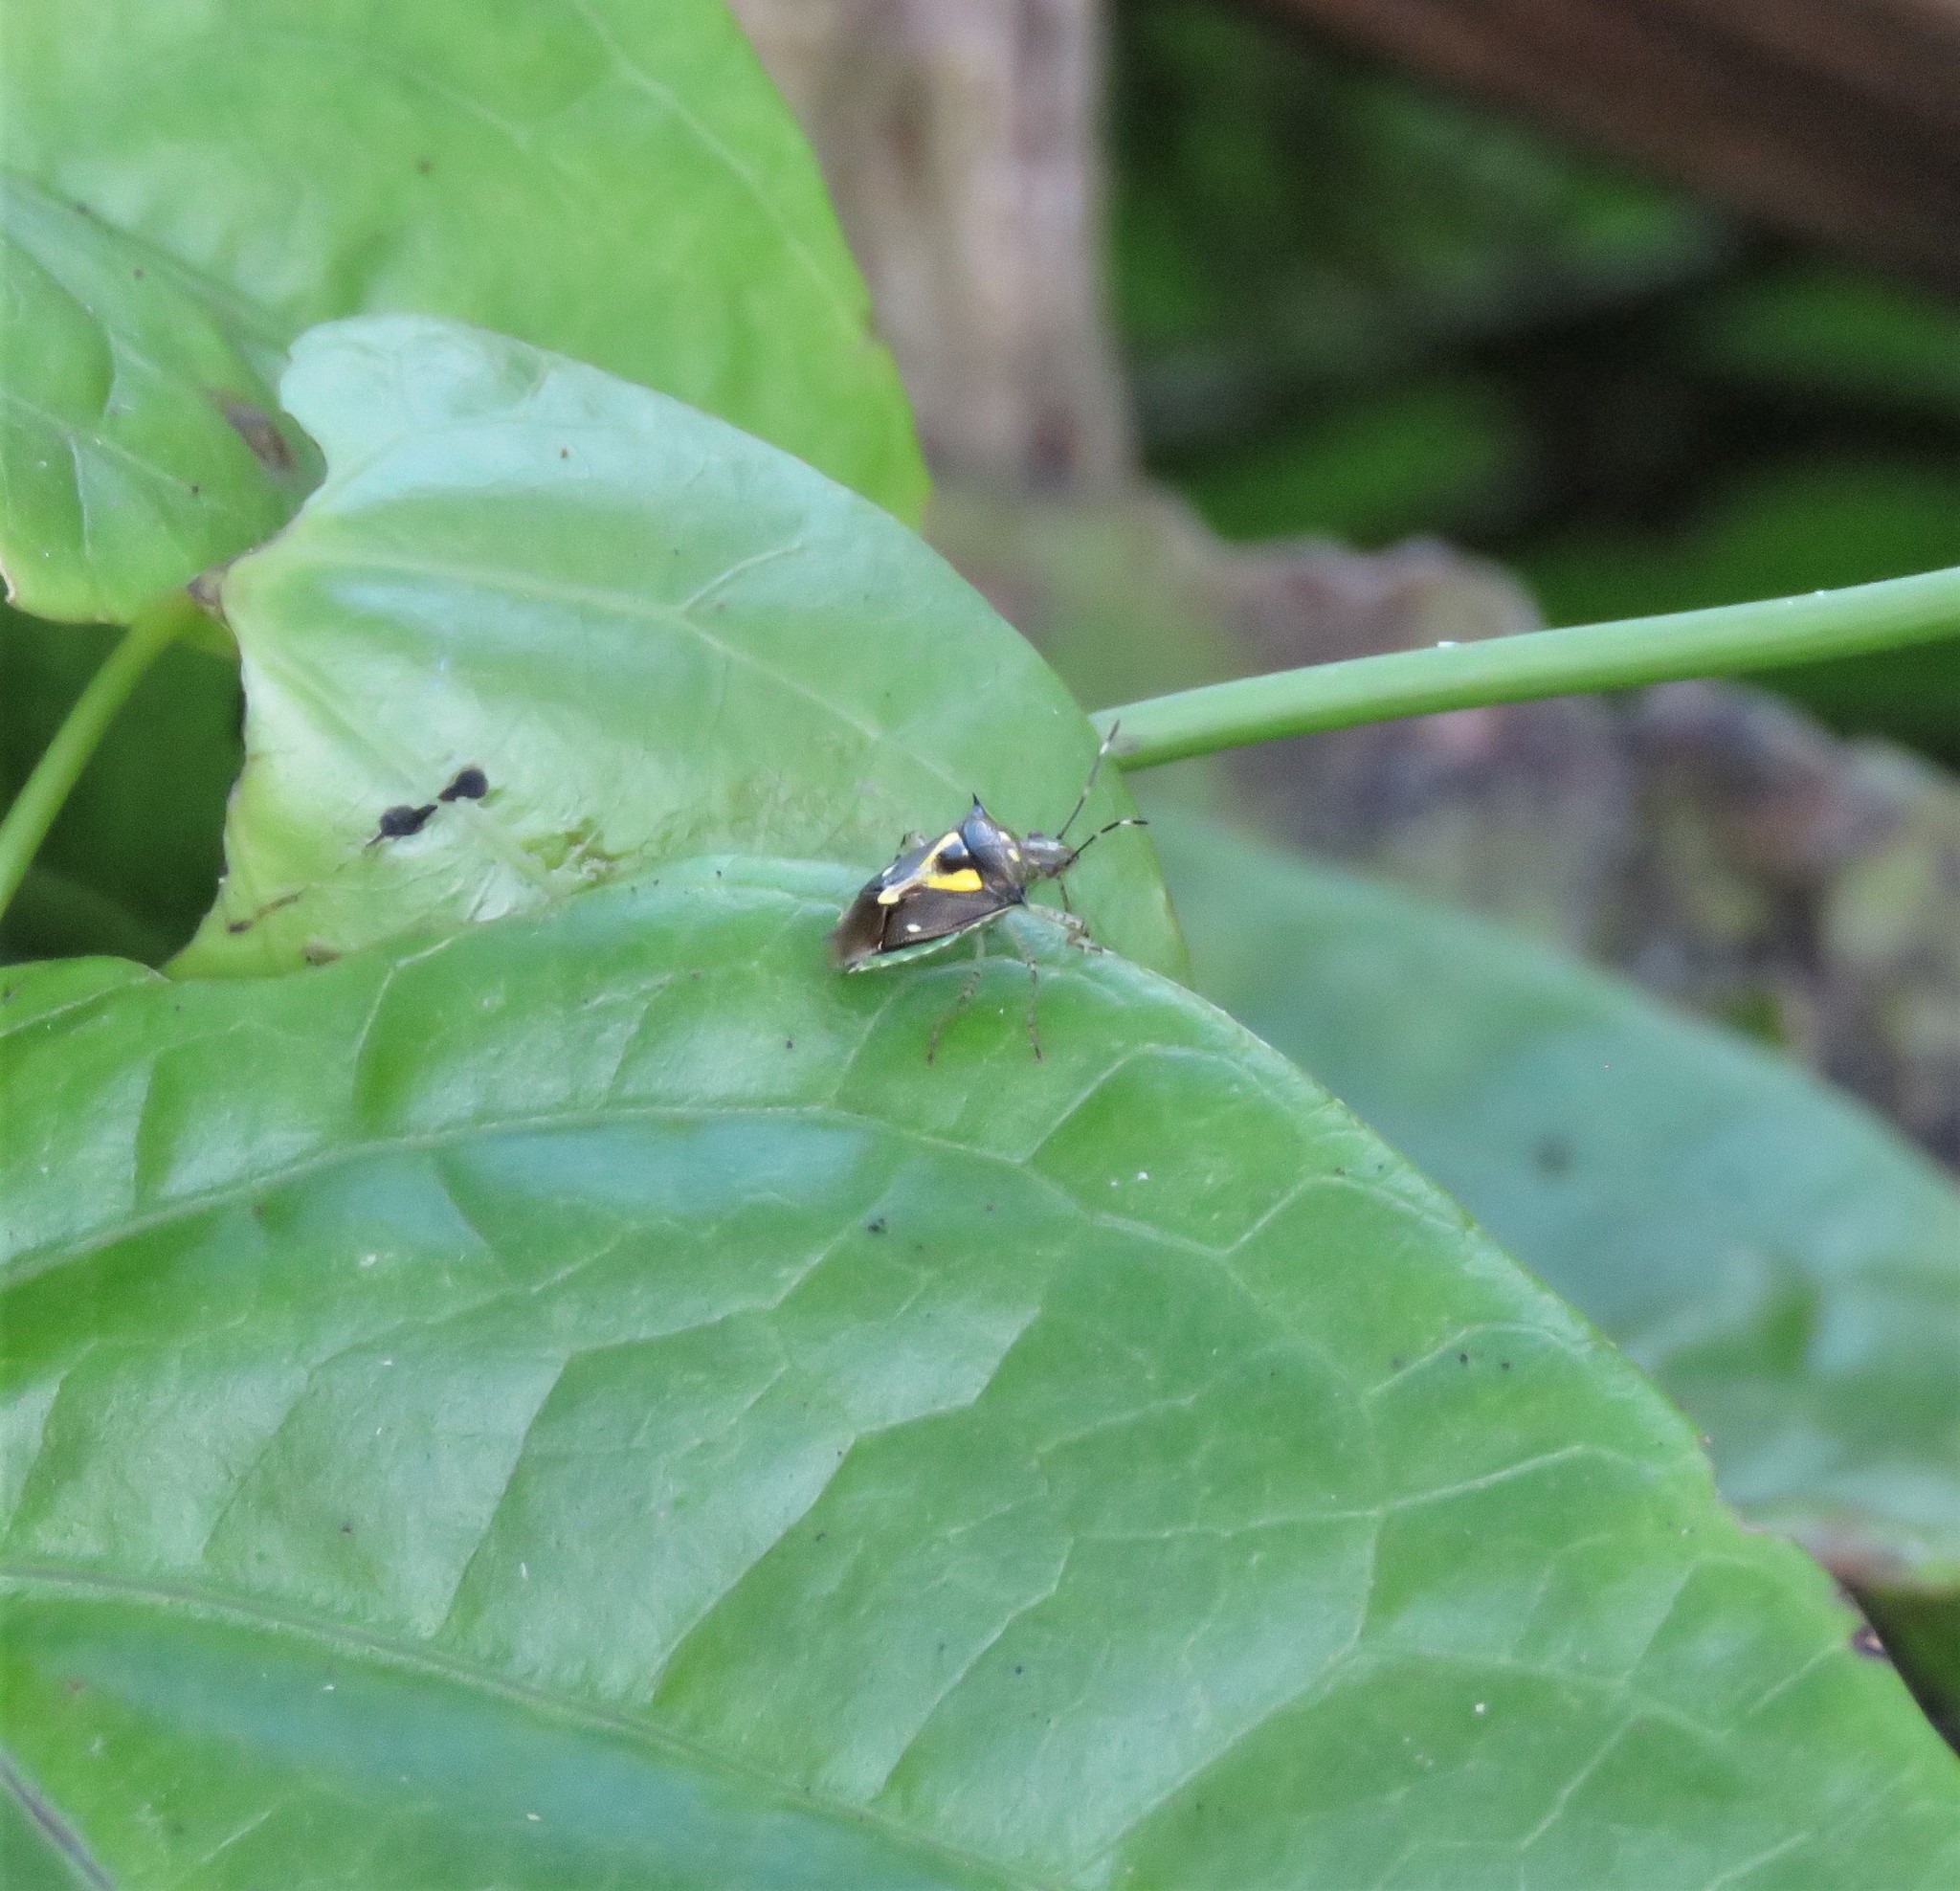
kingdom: Animalia
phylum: Arthropoda
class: Insecta
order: Hemiptera
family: Pentatomidae
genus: Mormidea
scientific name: Mormidea ypsilon
